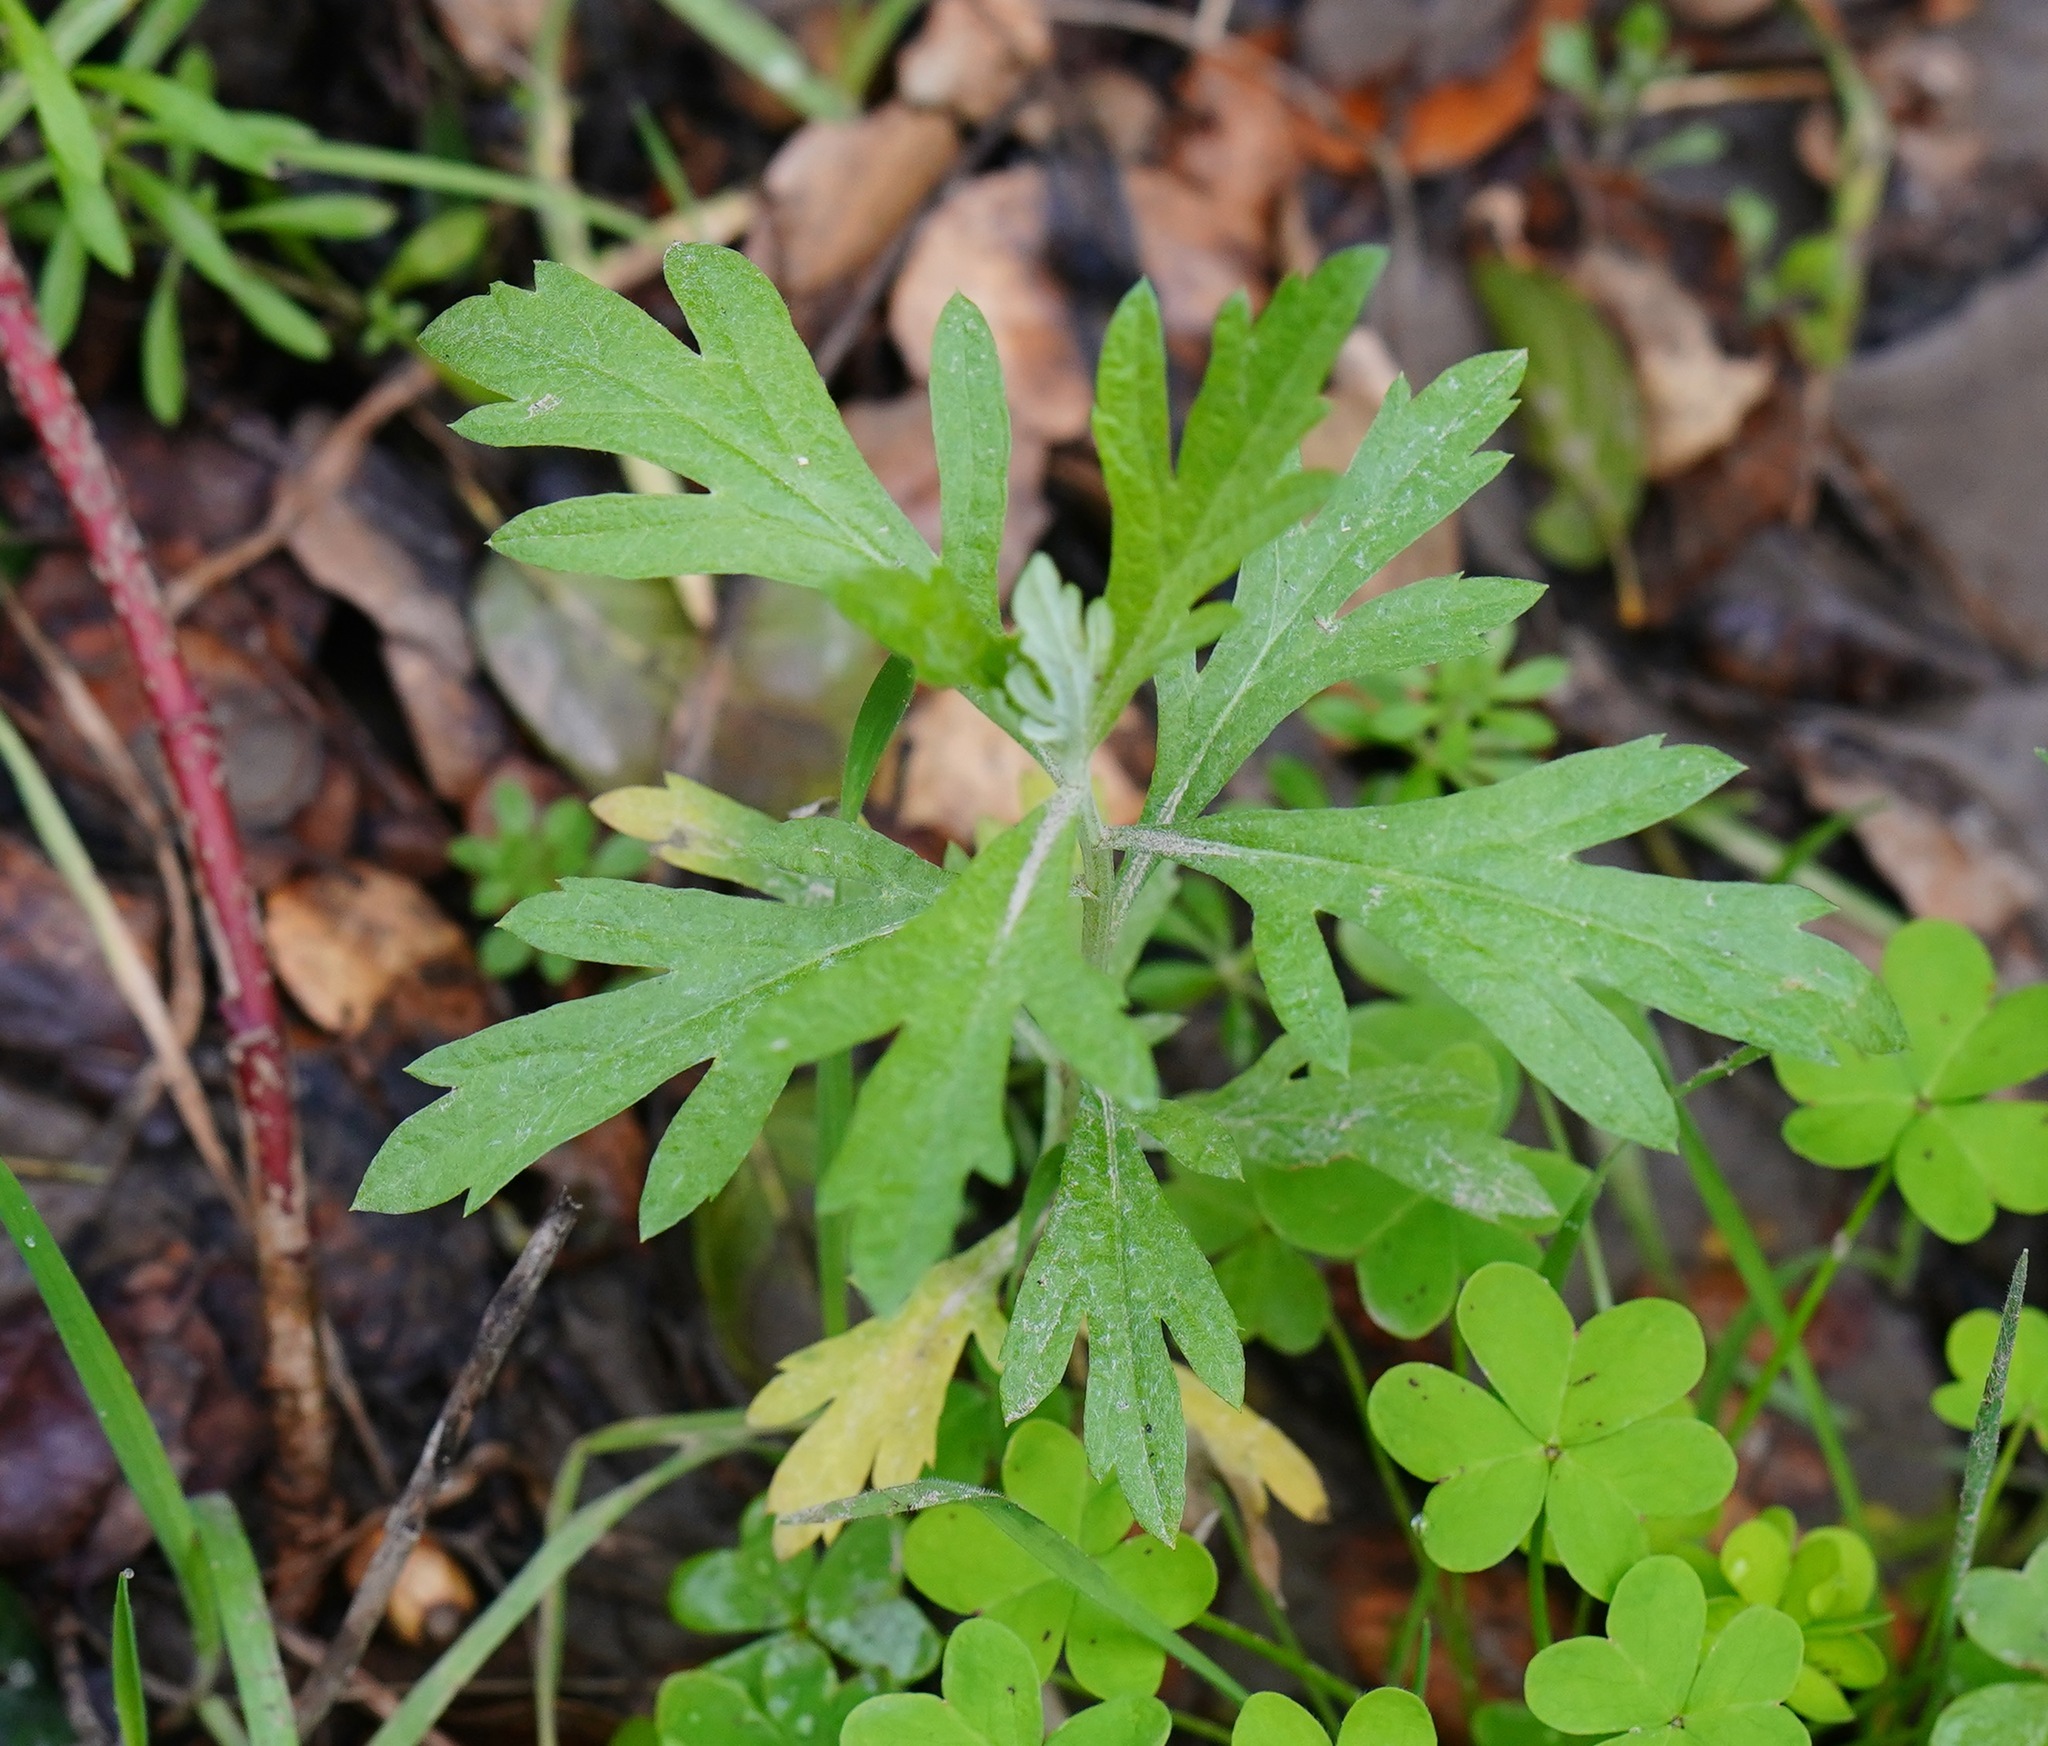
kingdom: Plantae
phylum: Tracheophyta
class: Magnoliopsida
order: Asterales
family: Asteraceae
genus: Artemisia
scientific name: Artemisia douglasiana
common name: Northwest mugwort
